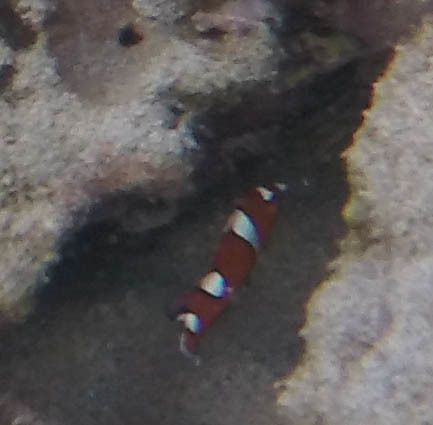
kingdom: Animalia
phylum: Chordata
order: Perciformes
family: Labridae
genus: Coris
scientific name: Coris gaimard
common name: Yellowtail coris
